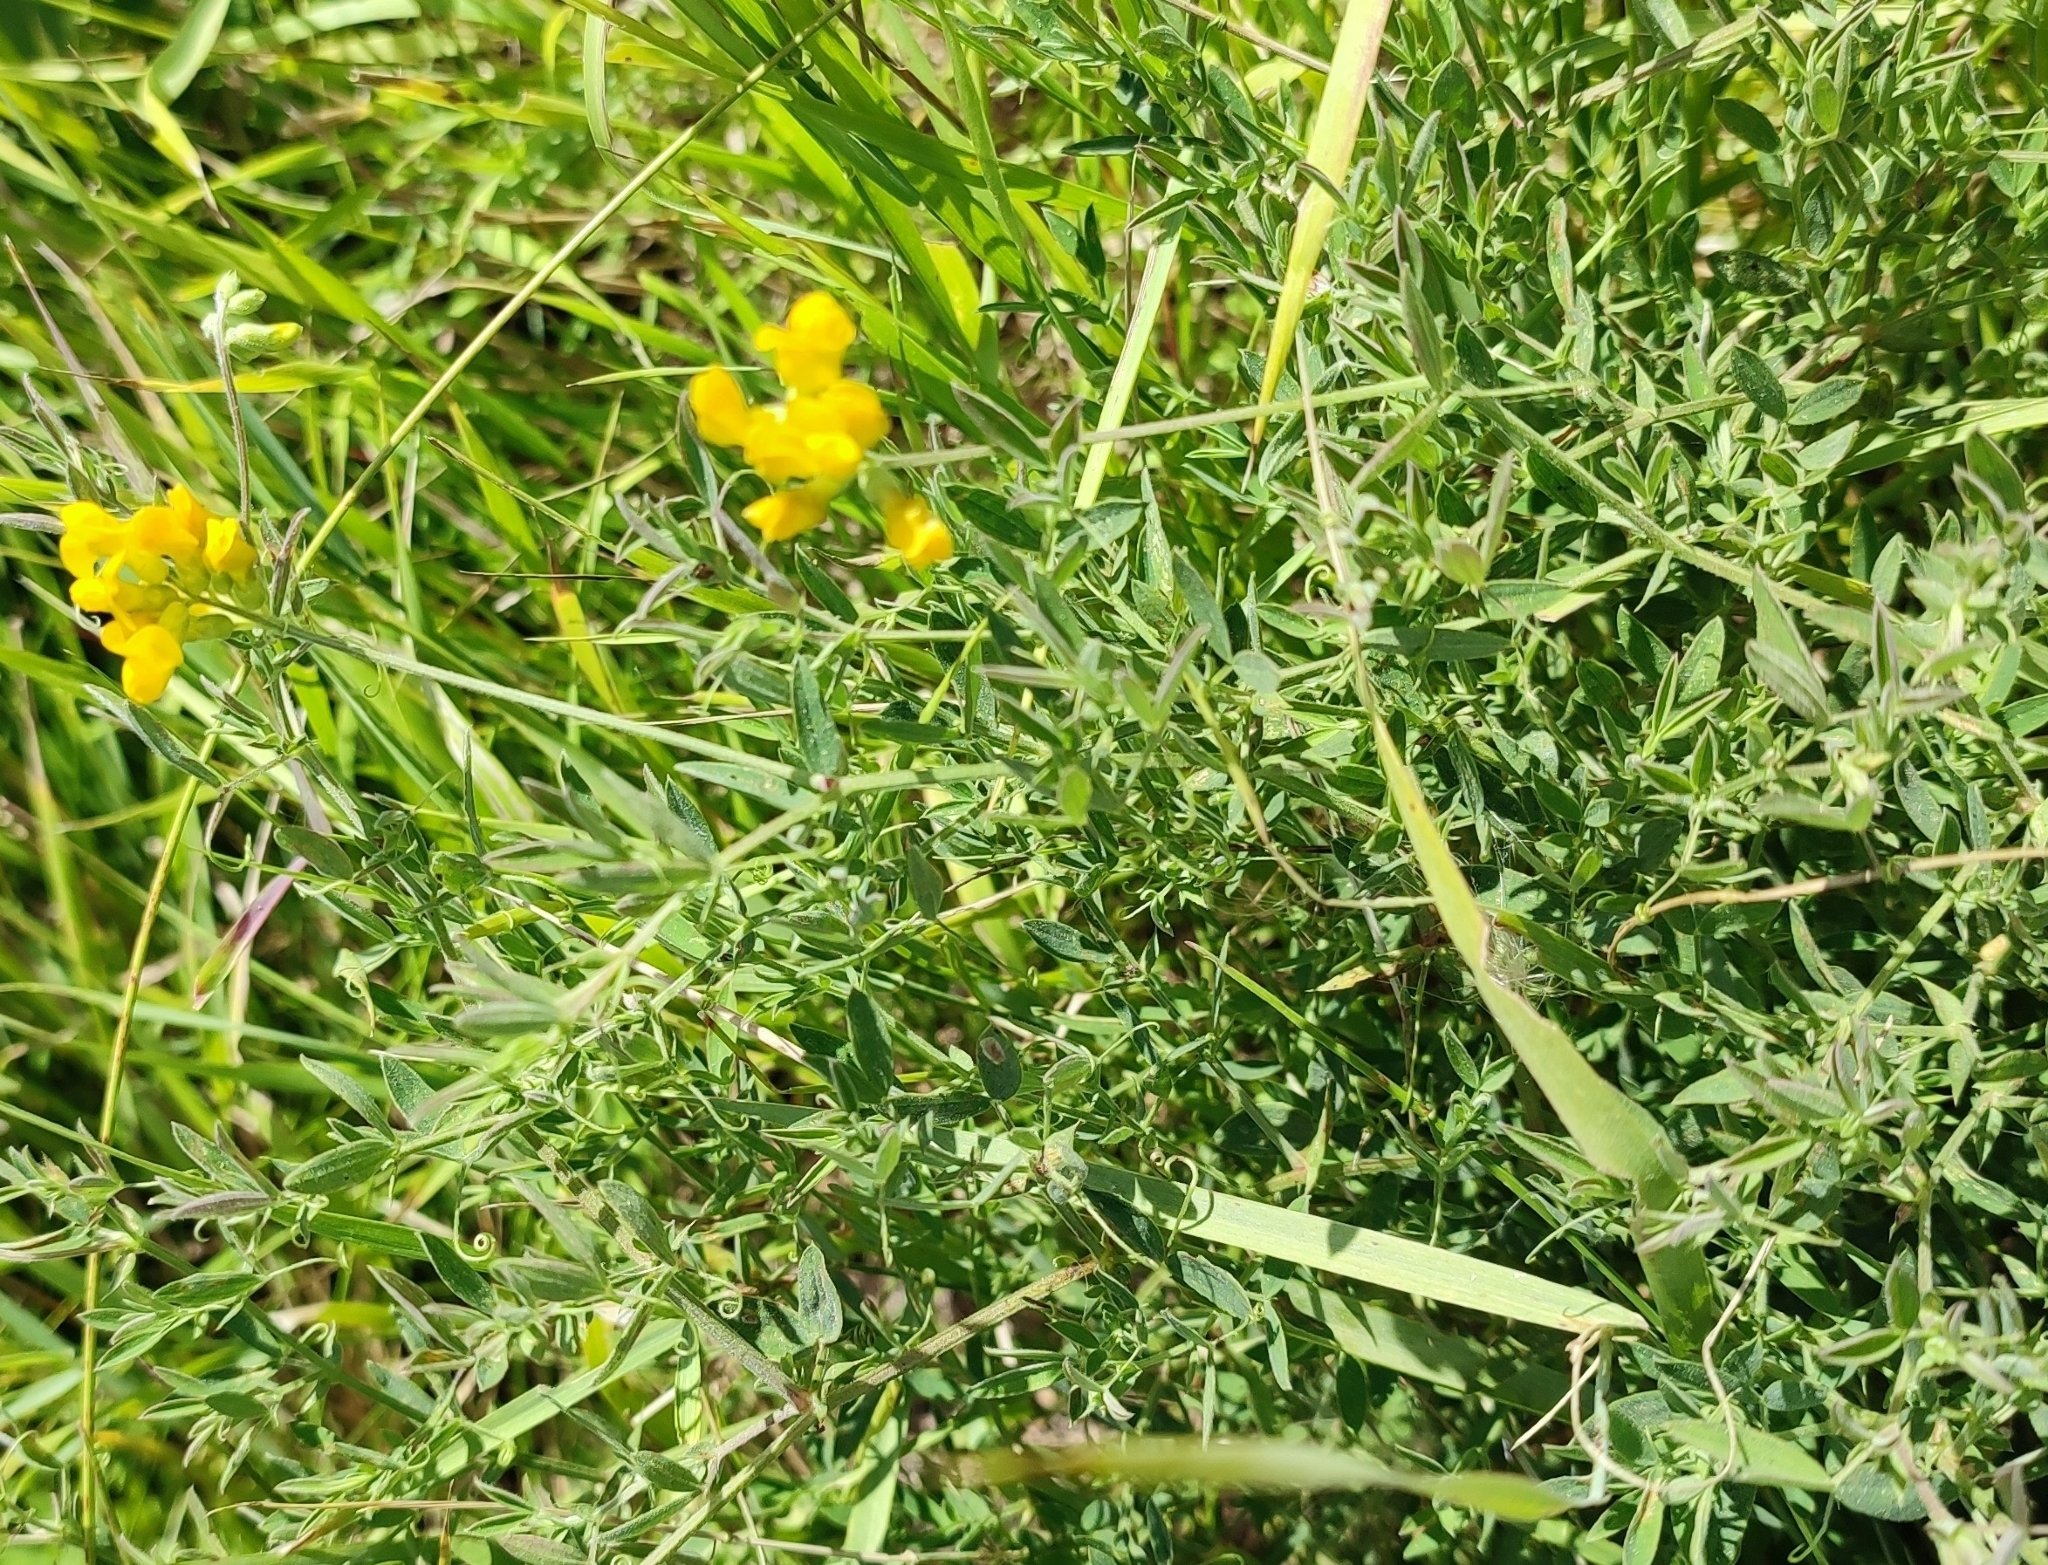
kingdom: Plantae
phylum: Tracheophyta
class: Magnoliopsida
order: Fabales
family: Fabaceae
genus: Lathyrus
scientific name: Lathyrus pratensis
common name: Meadow vetchling
